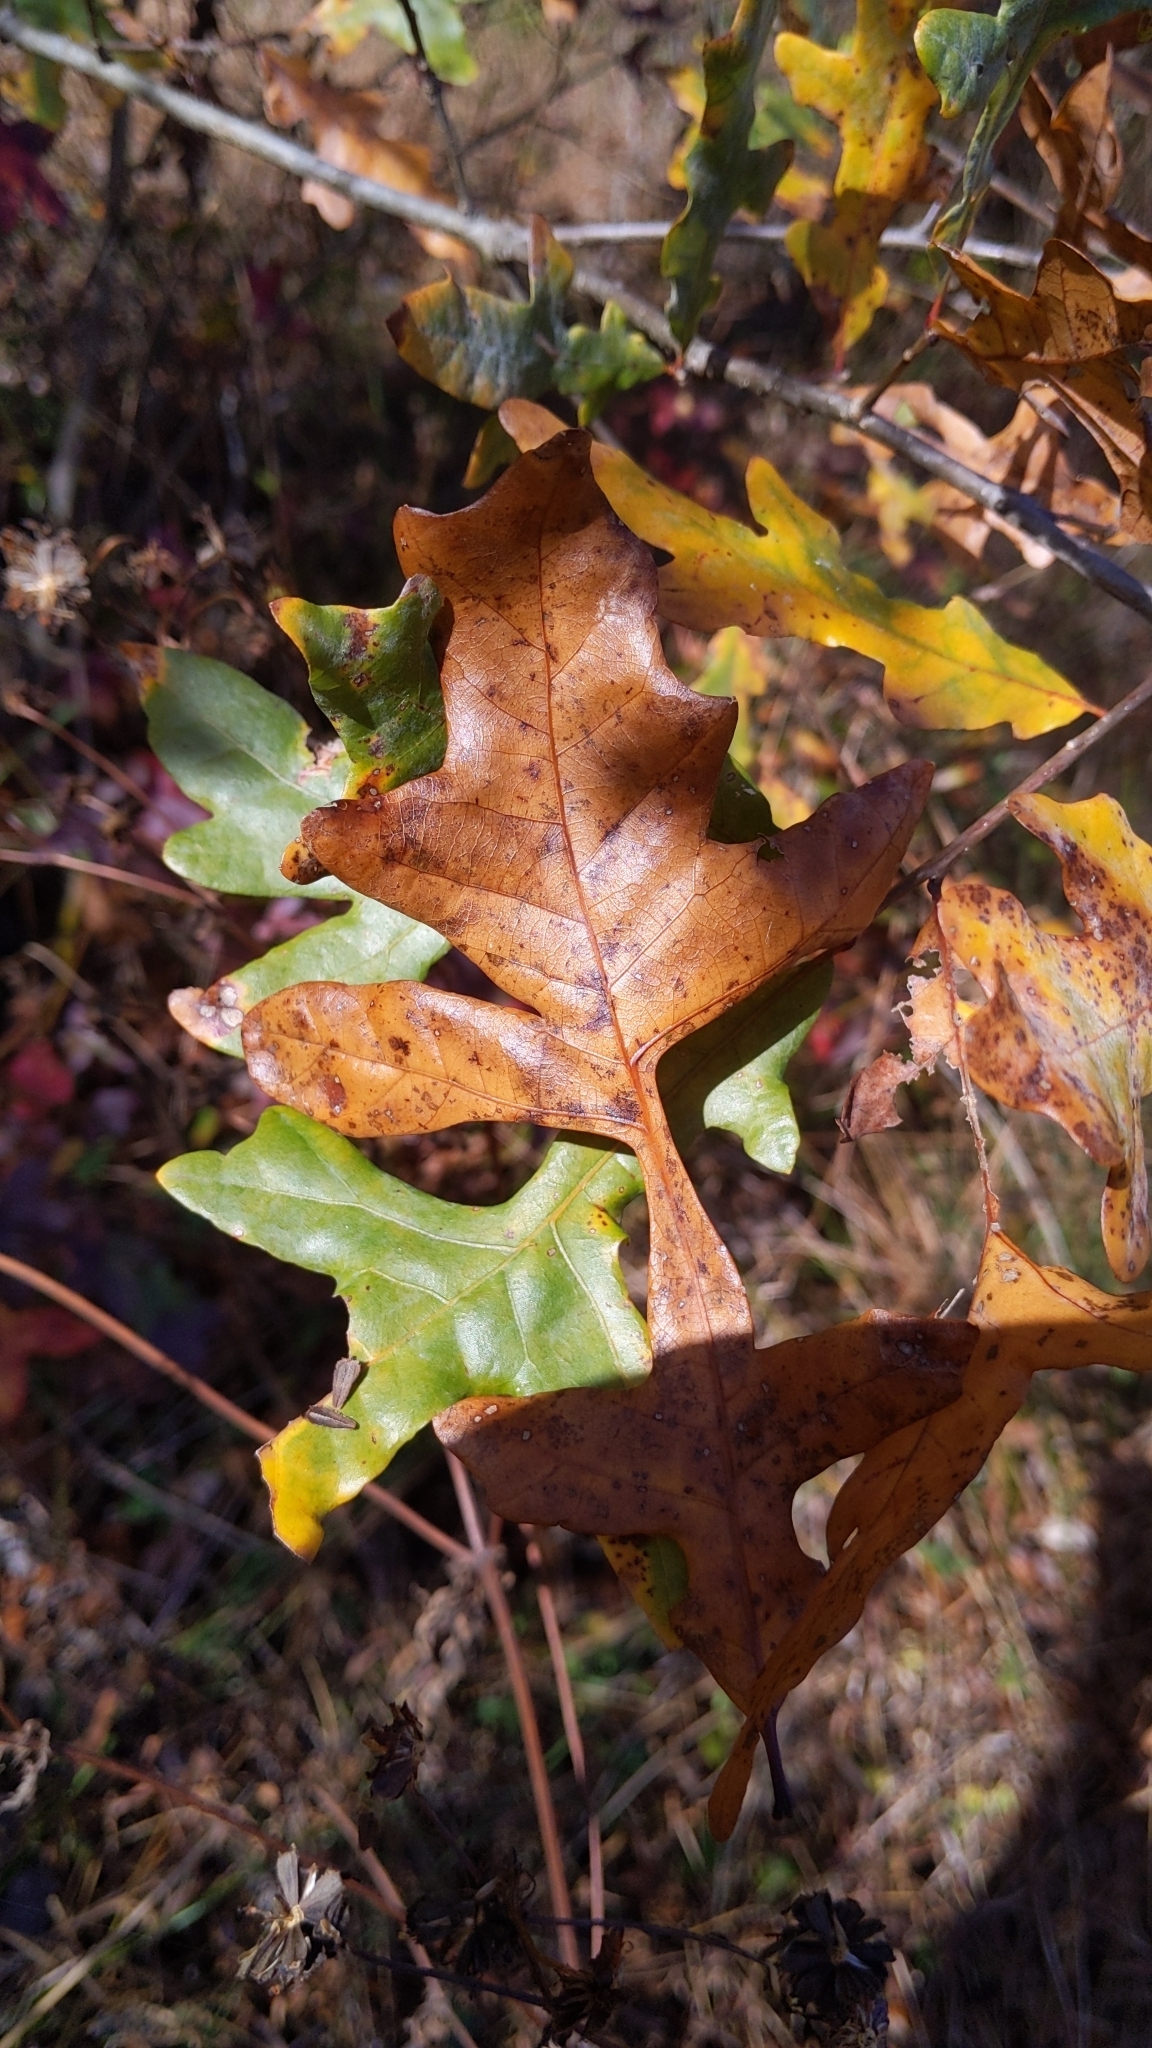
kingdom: Plantae
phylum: Tracheophyta
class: Magnoliopsida
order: Fagales
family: Fagaceae
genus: Quercus
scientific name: Quercus lyrata
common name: Overcup oak
